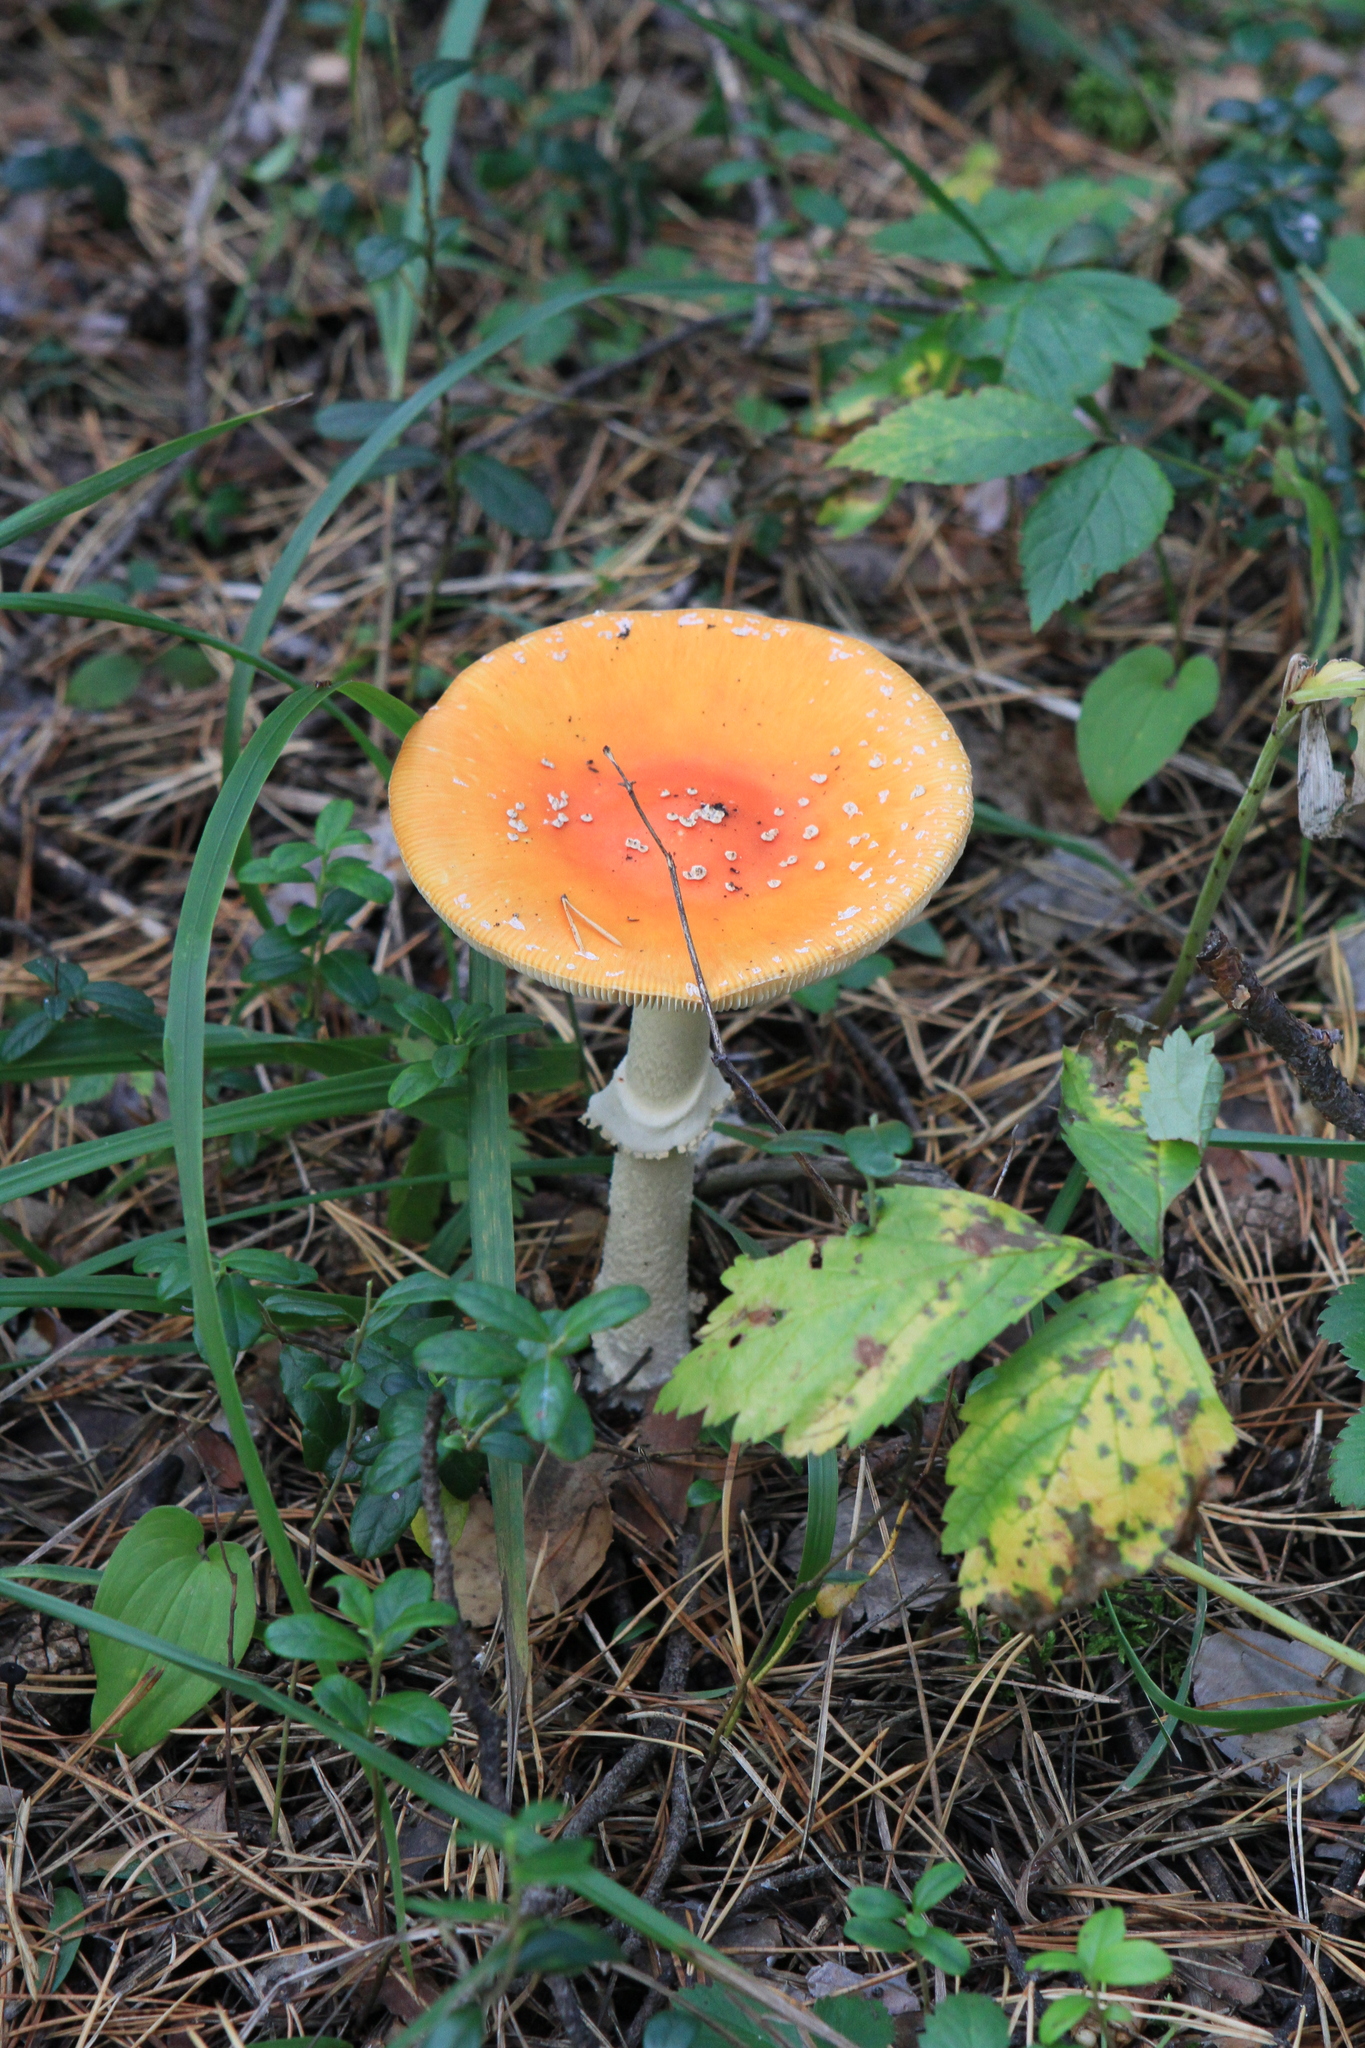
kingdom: Fungi
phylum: Basidiomycota
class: Agaricomycetes
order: Agaricales
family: Amanitaceae
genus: Amanita
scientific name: Amanita muscaria
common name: Fly agaric
